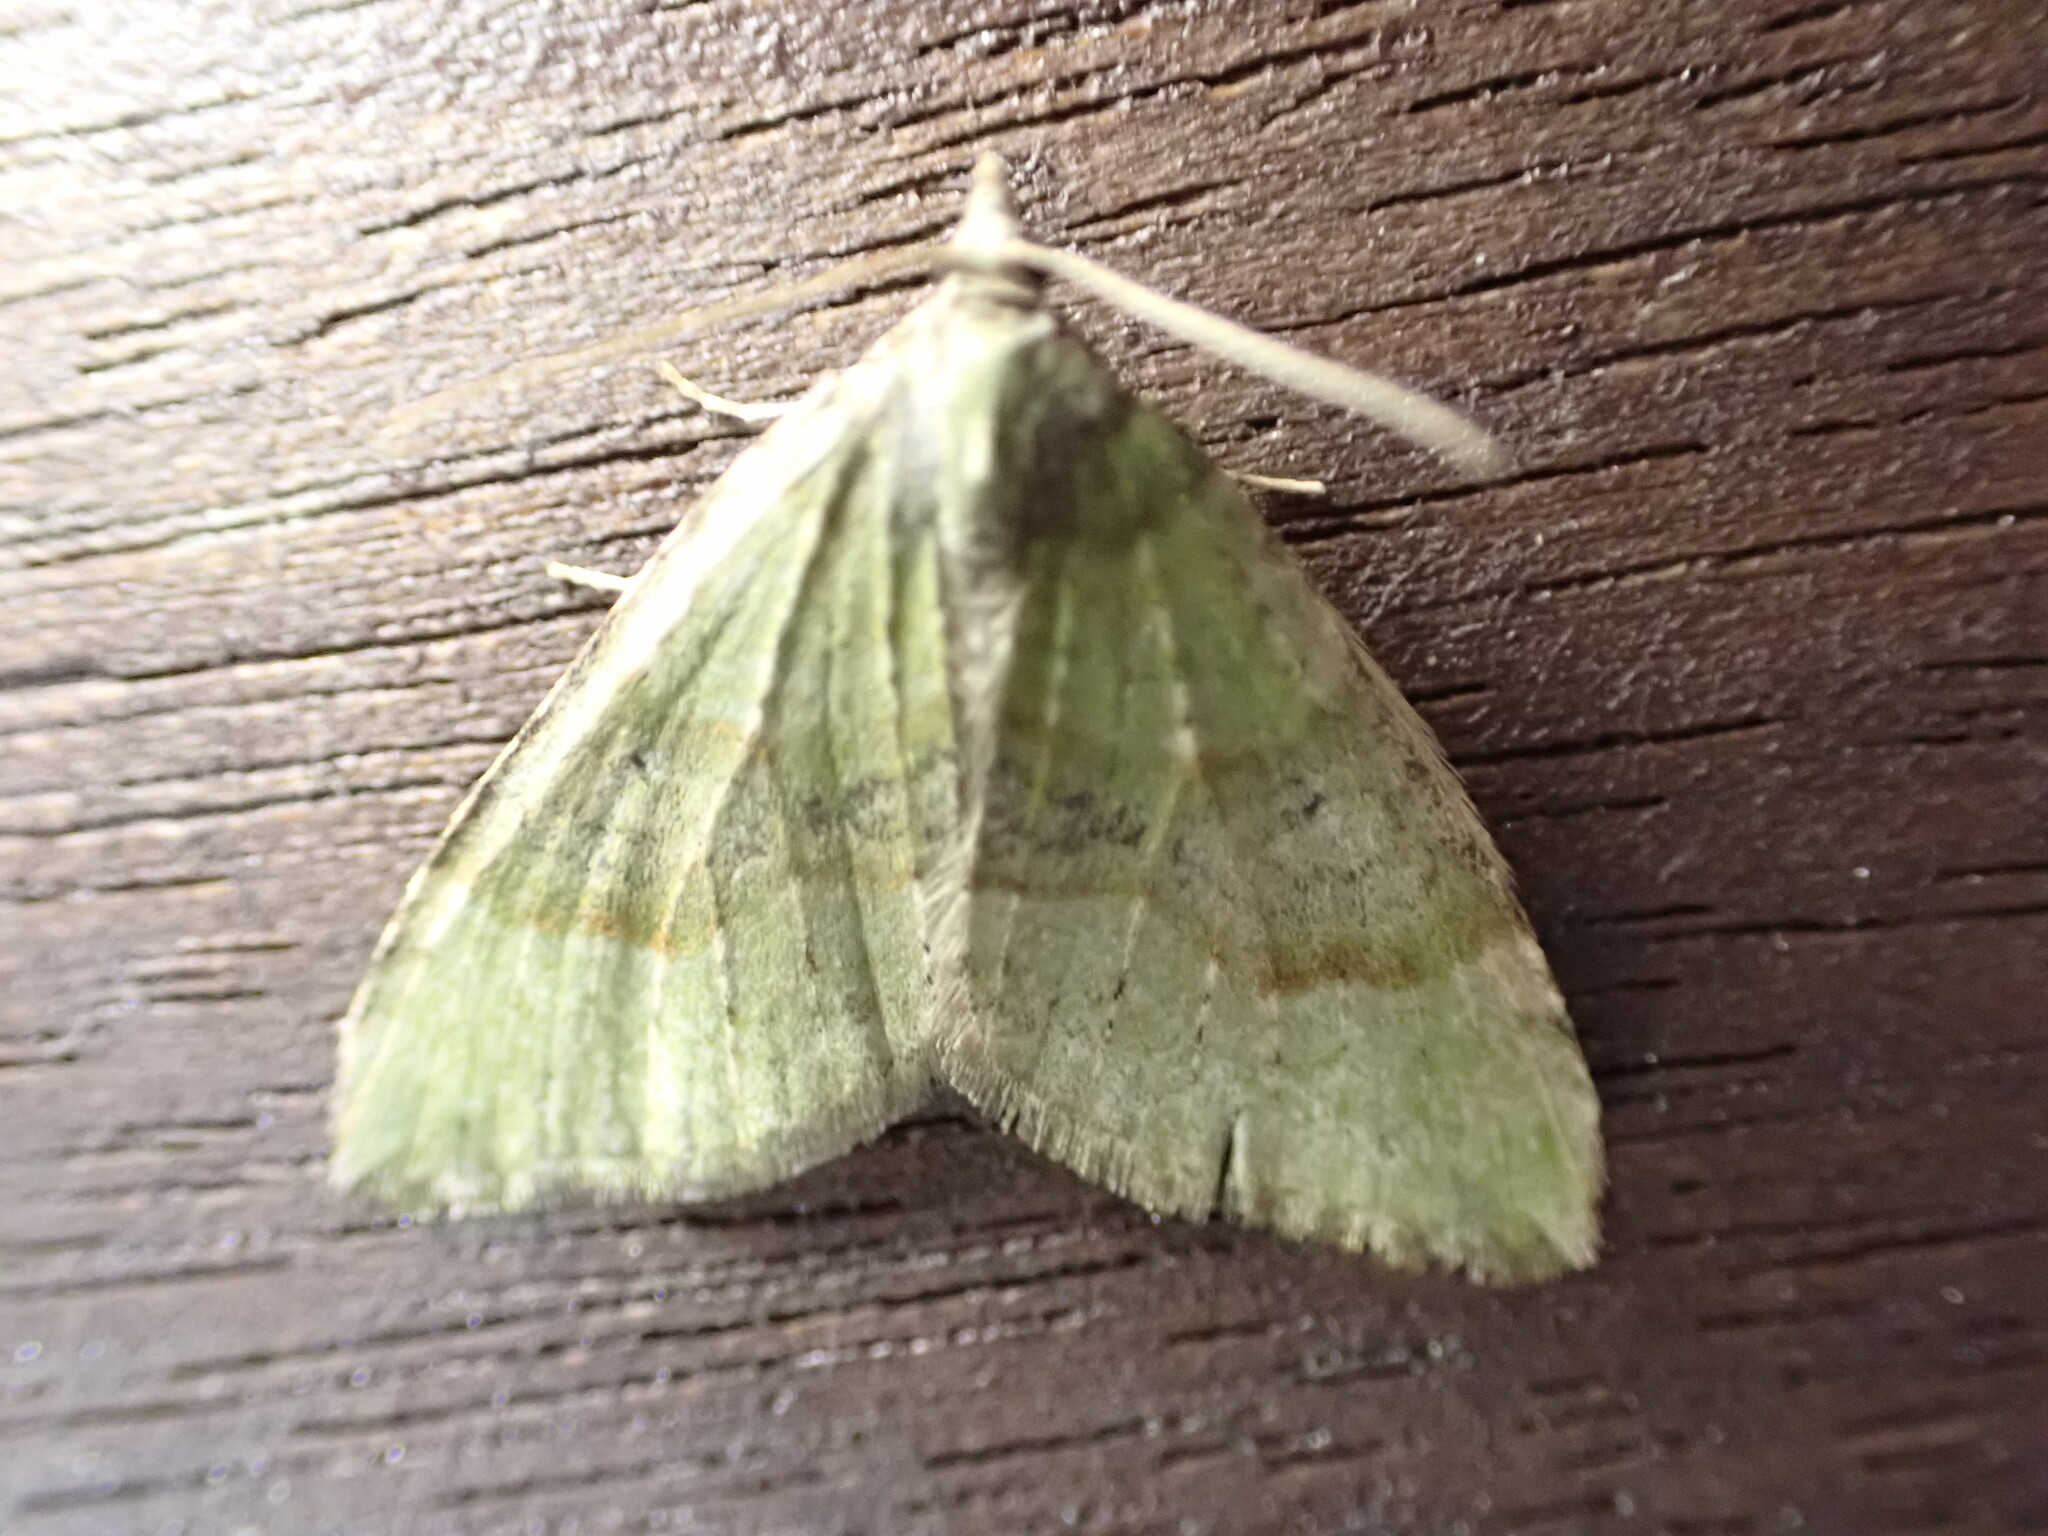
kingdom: Animalia
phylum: Arthropoda
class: Insecta
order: Lepidoptera
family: Geometridae
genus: Epyaxa
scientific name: Epyaxa rosearia
